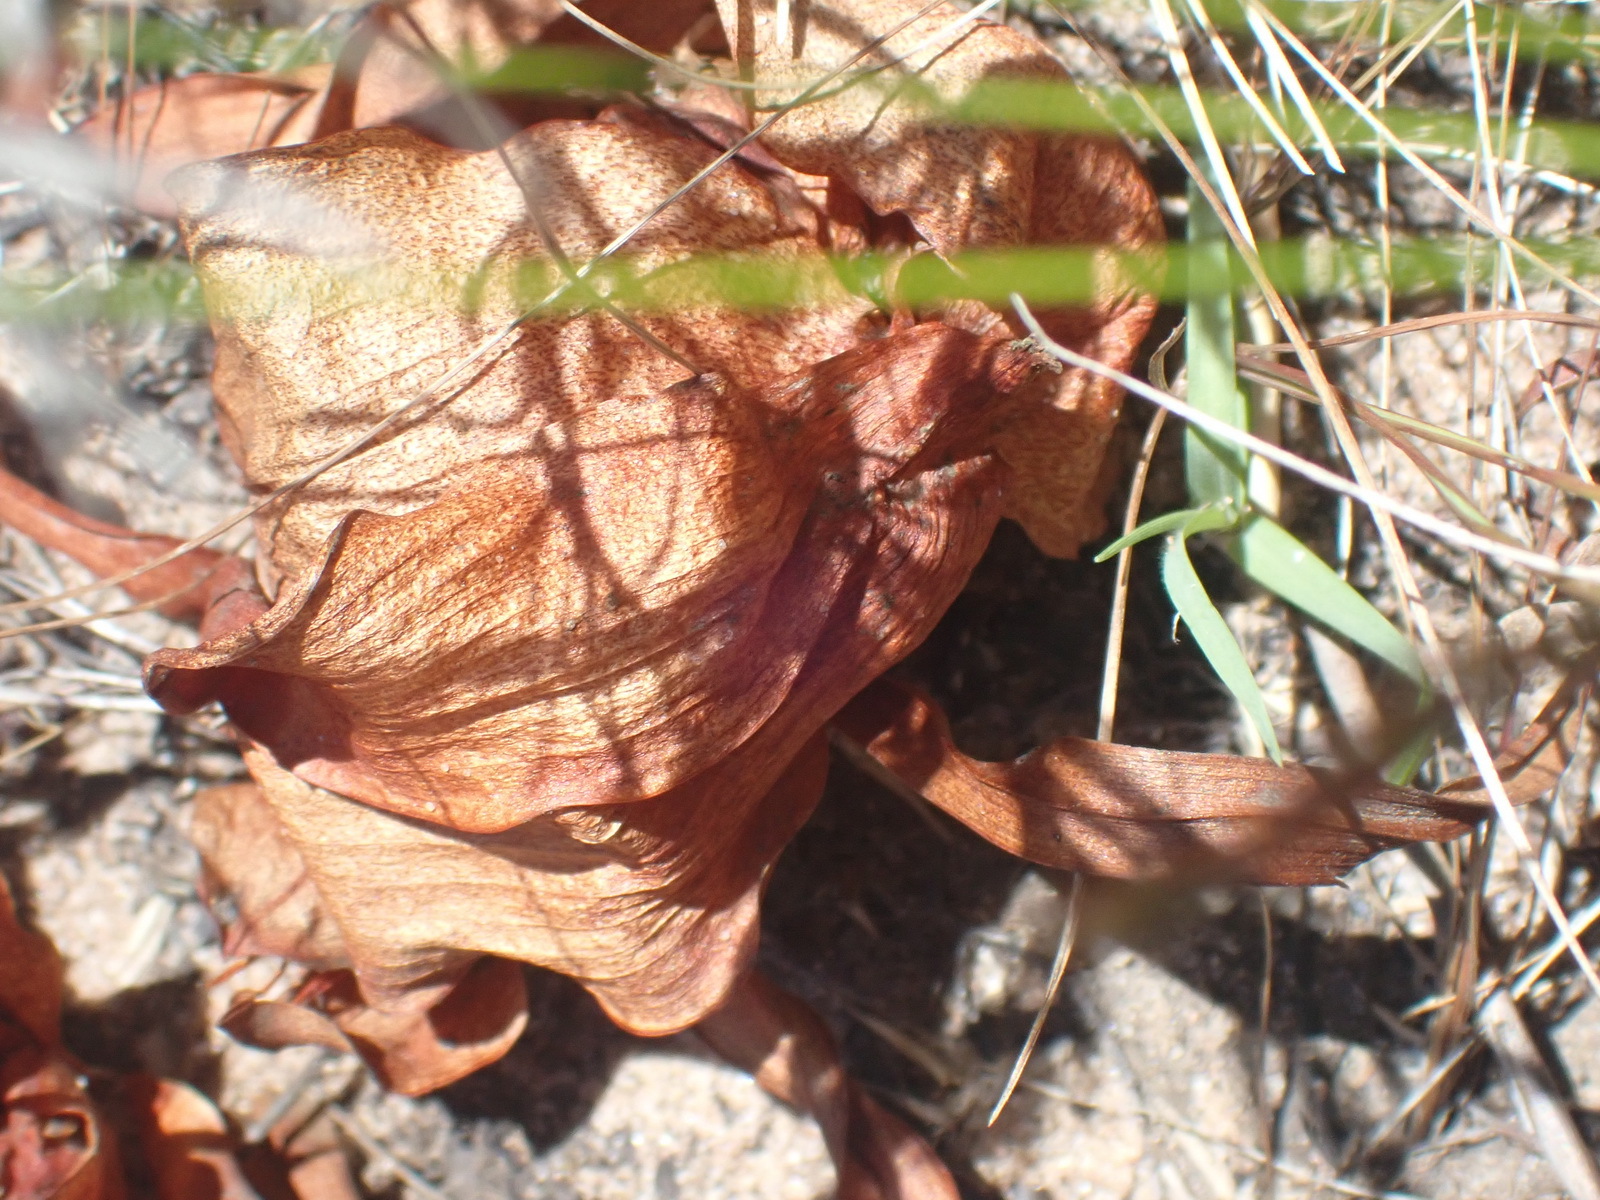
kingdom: Plantae
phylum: Tracheophyta
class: Liliopsida
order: Liliales
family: Colchicaceae
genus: Colchicum
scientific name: Colchicum eucomoides
